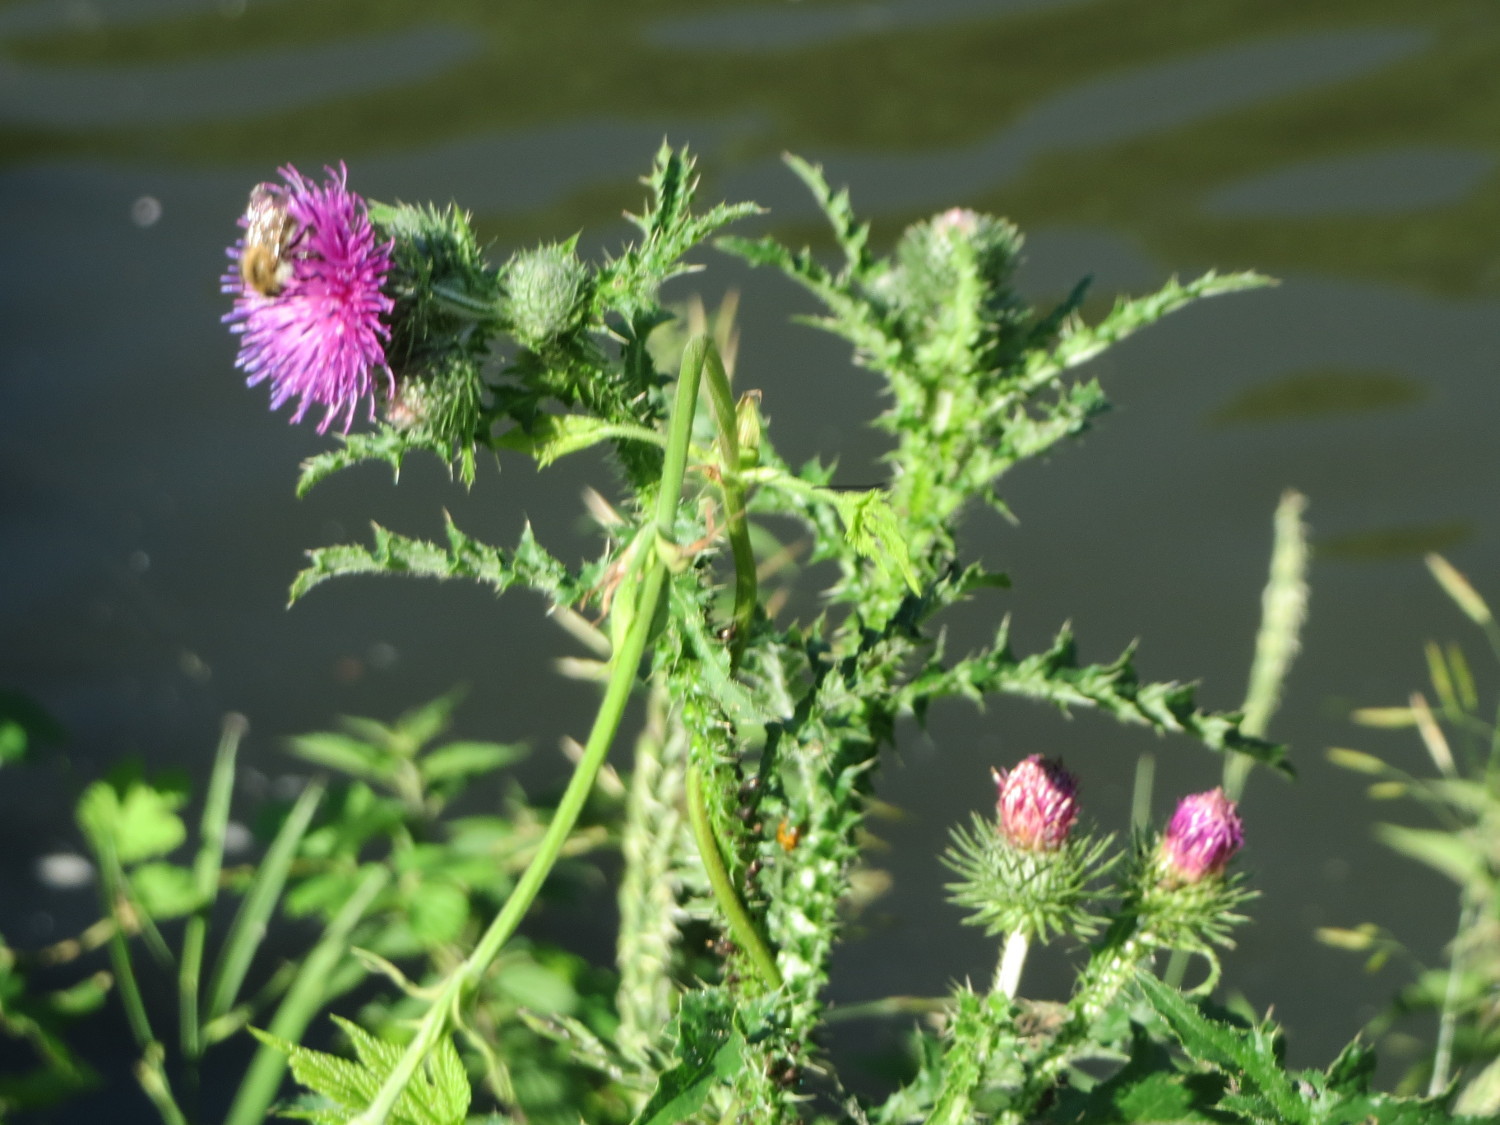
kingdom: Plantae
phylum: Tracheophyta
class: Magnoliopsida
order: Asterales
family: Asteraceae
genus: Carduus
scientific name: Carduus acanthoides
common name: Plumeless thistle
